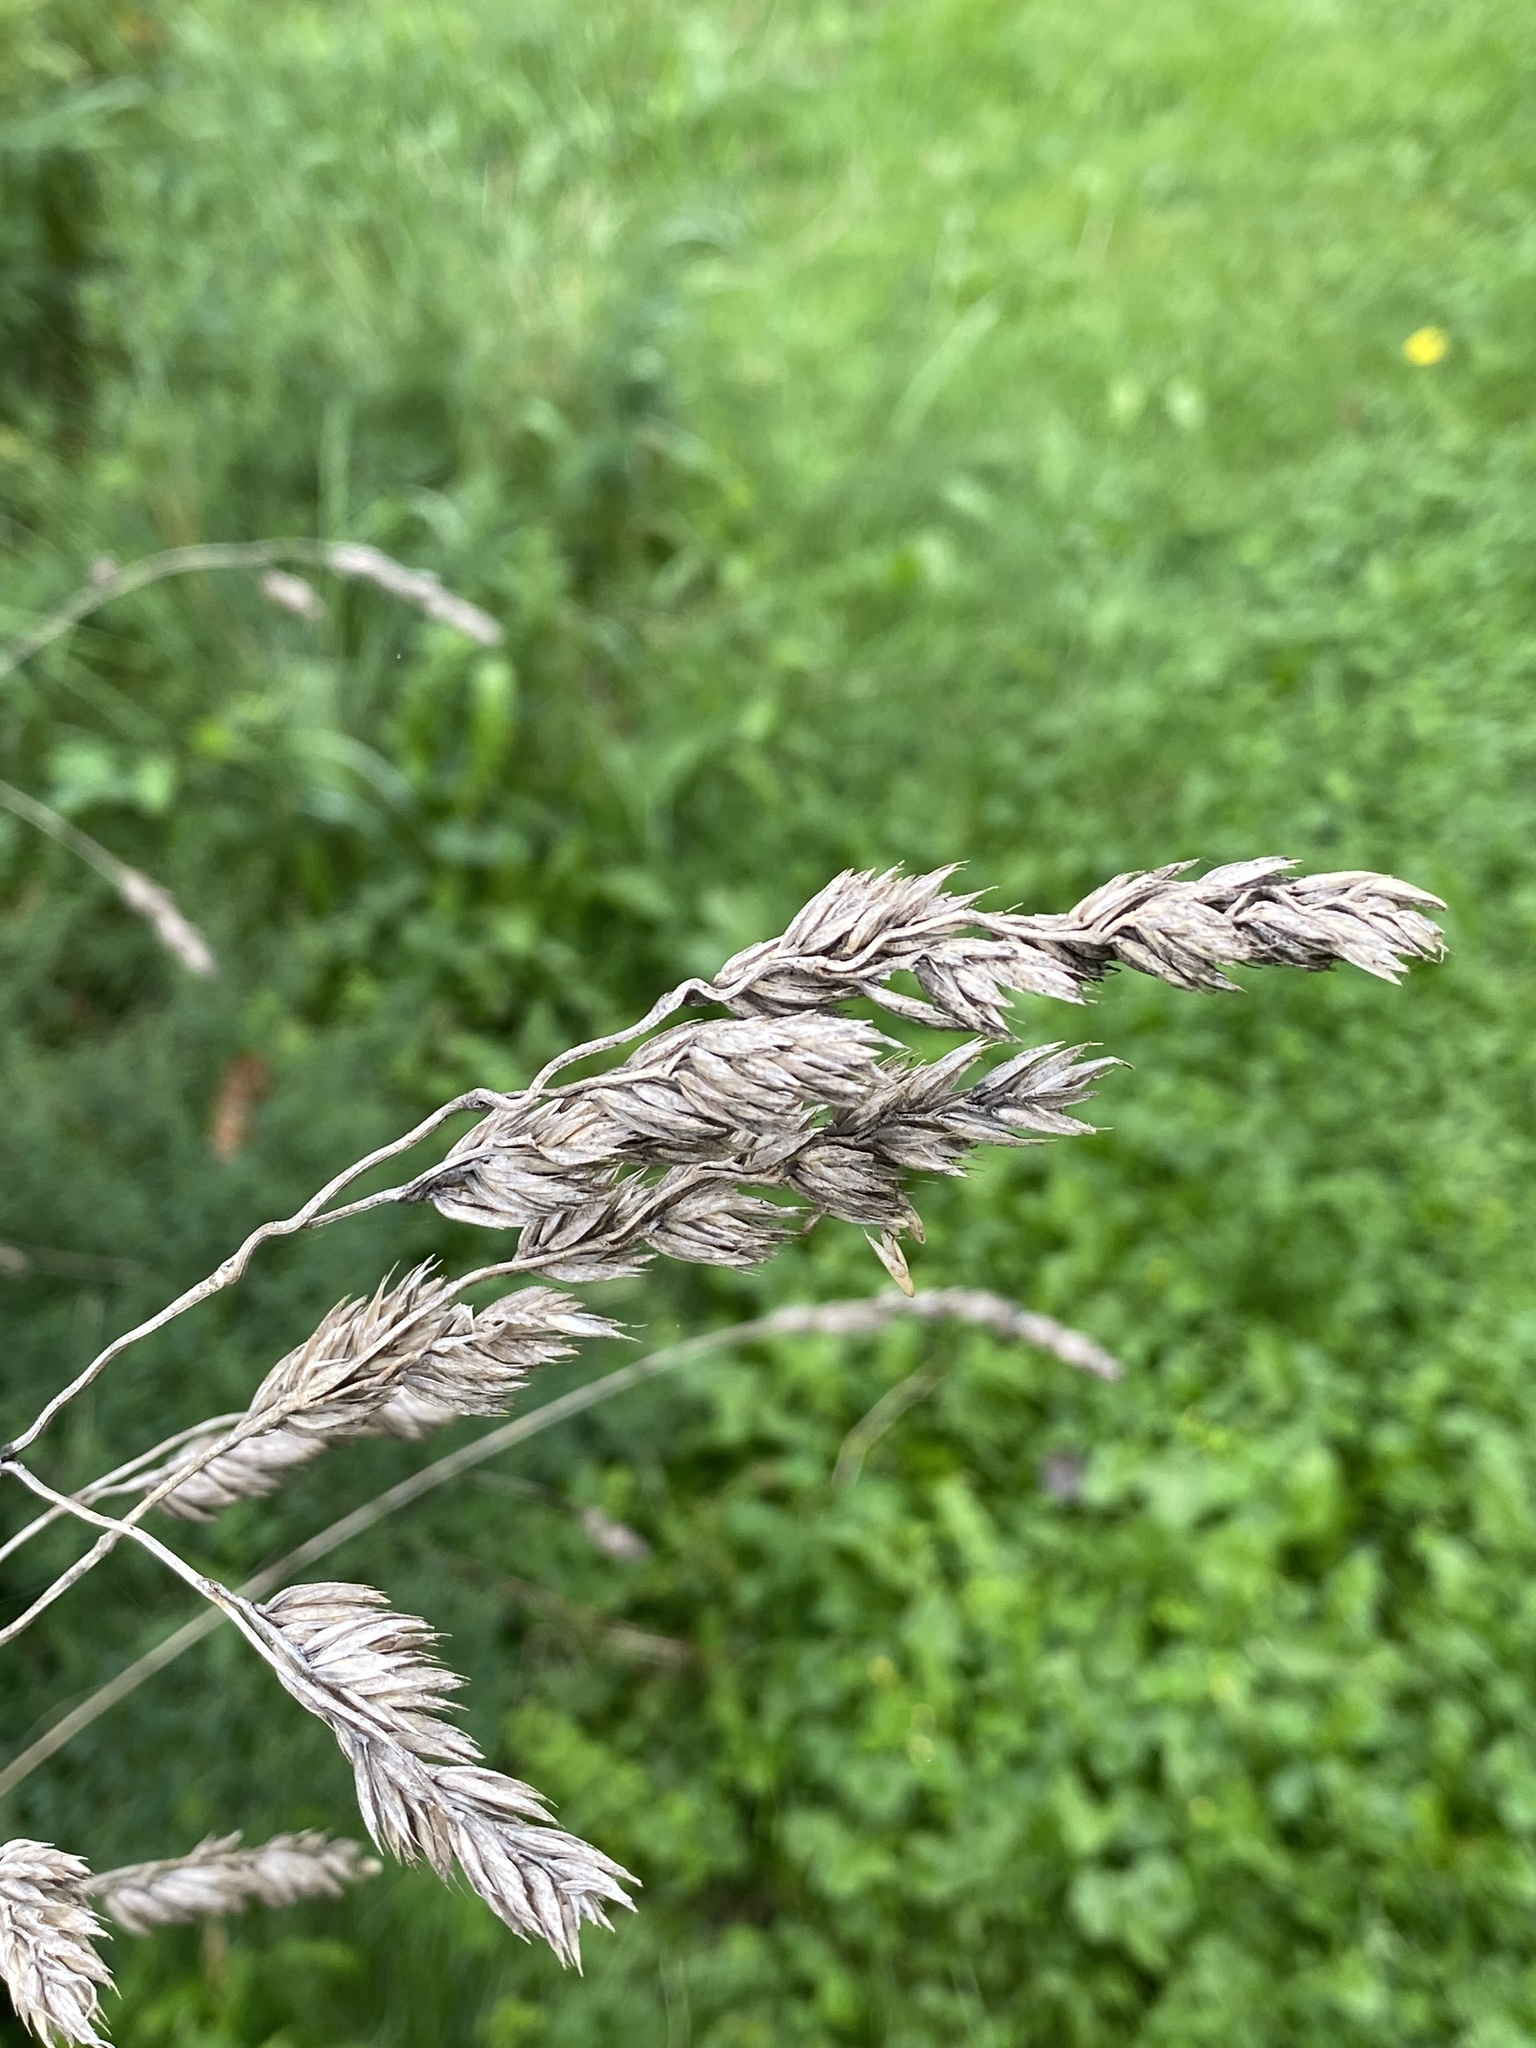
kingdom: Plantae
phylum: Tracheophyta
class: Liliopsida
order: Poales
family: Poaceae
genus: Dactylis
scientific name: Dactylis glomerata
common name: Orchardgrass
